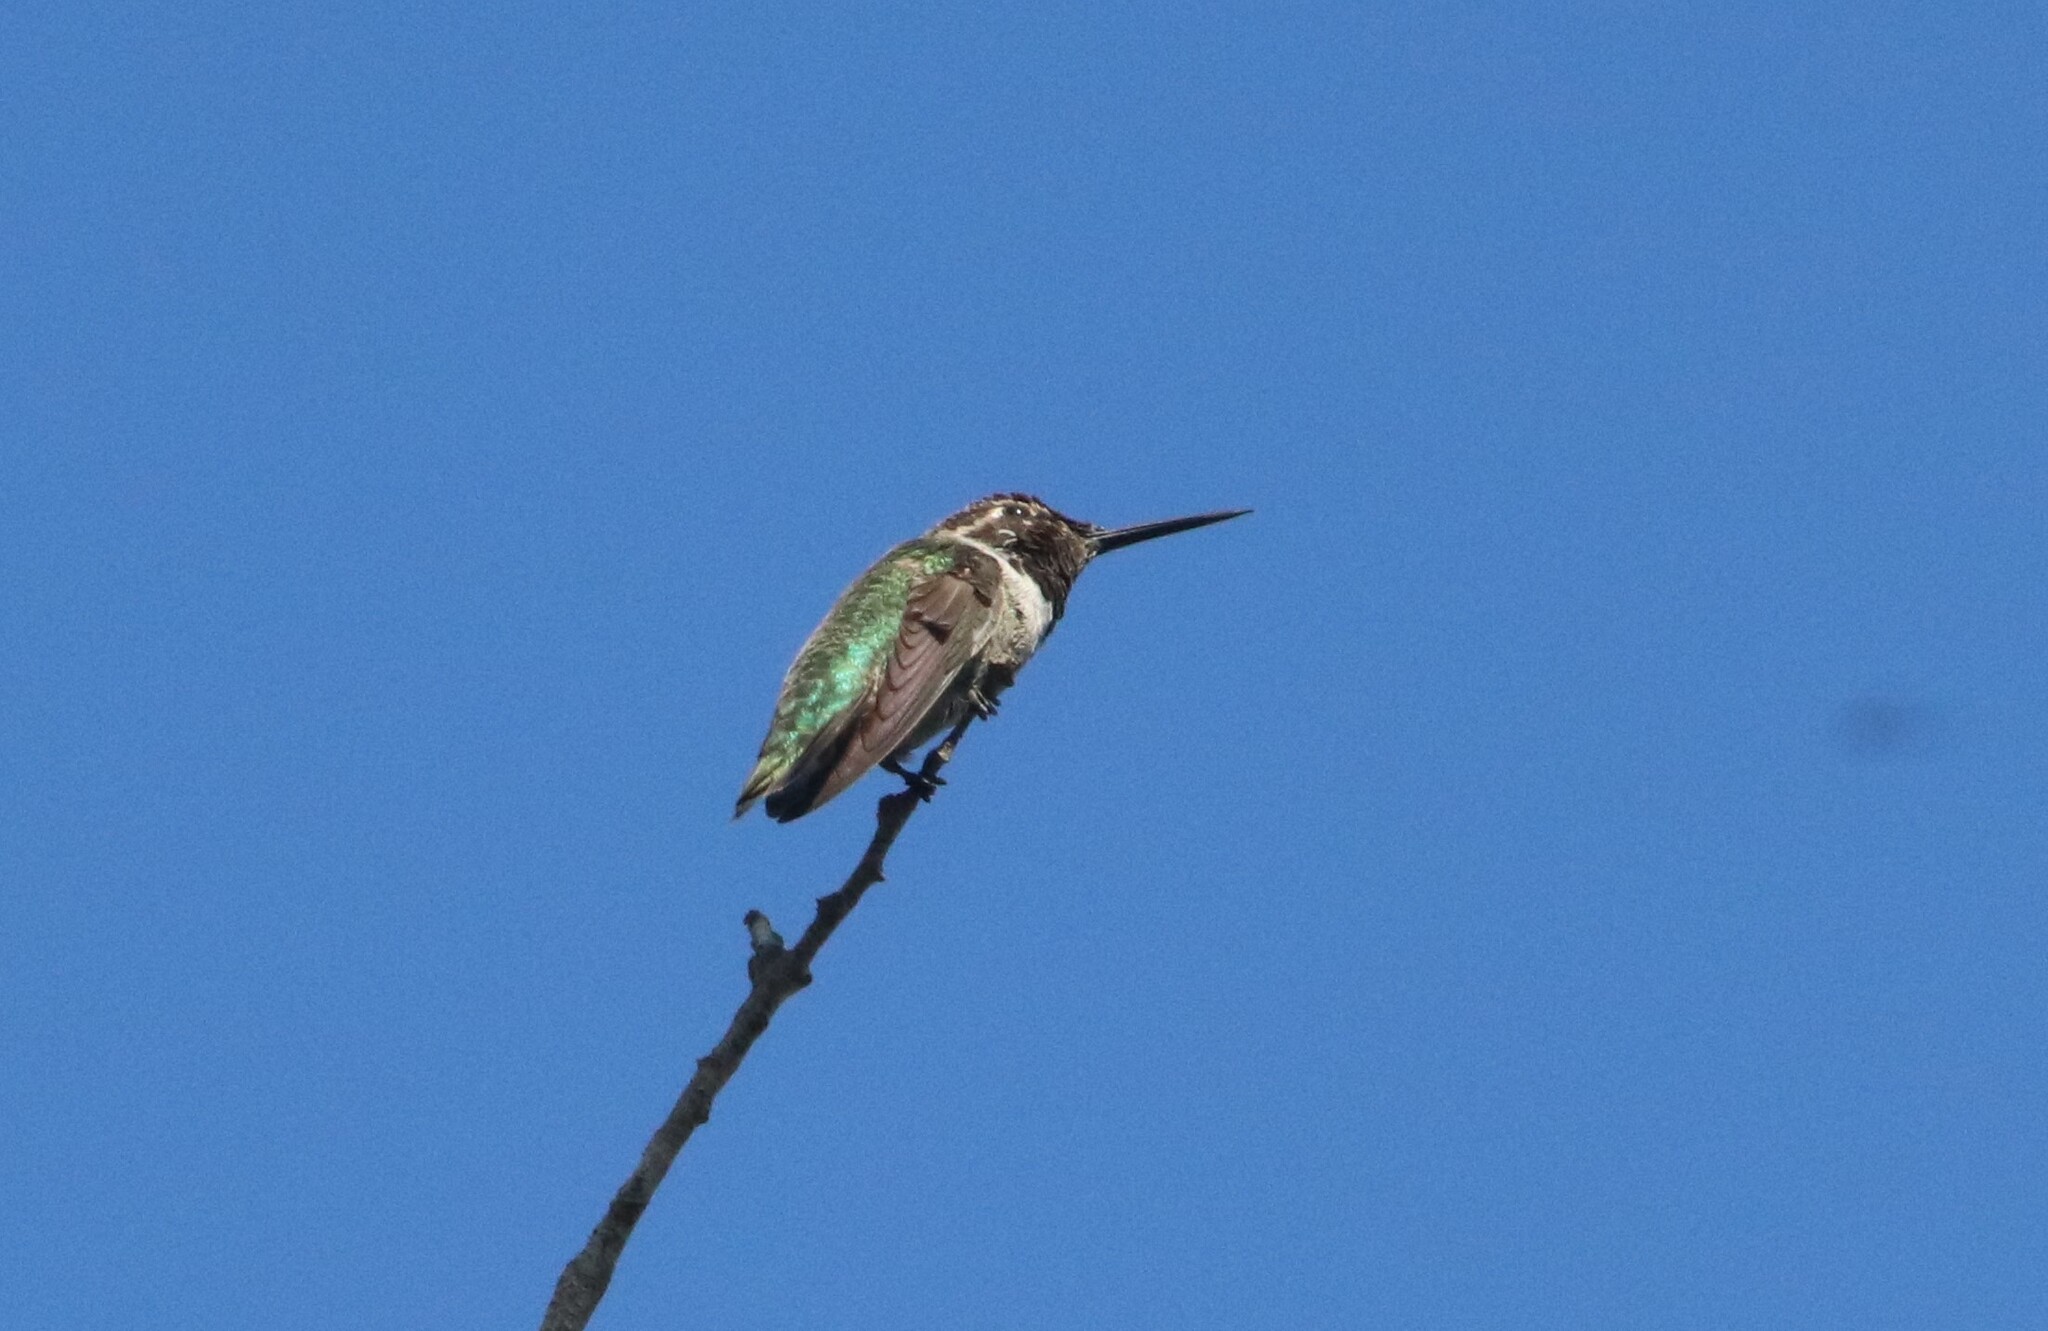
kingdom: Animalia
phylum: Chordata
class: Aves
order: Apodiformes
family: Trochilidae
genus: Calypte
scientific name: Calypte anna
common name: Anna's hummingbird
